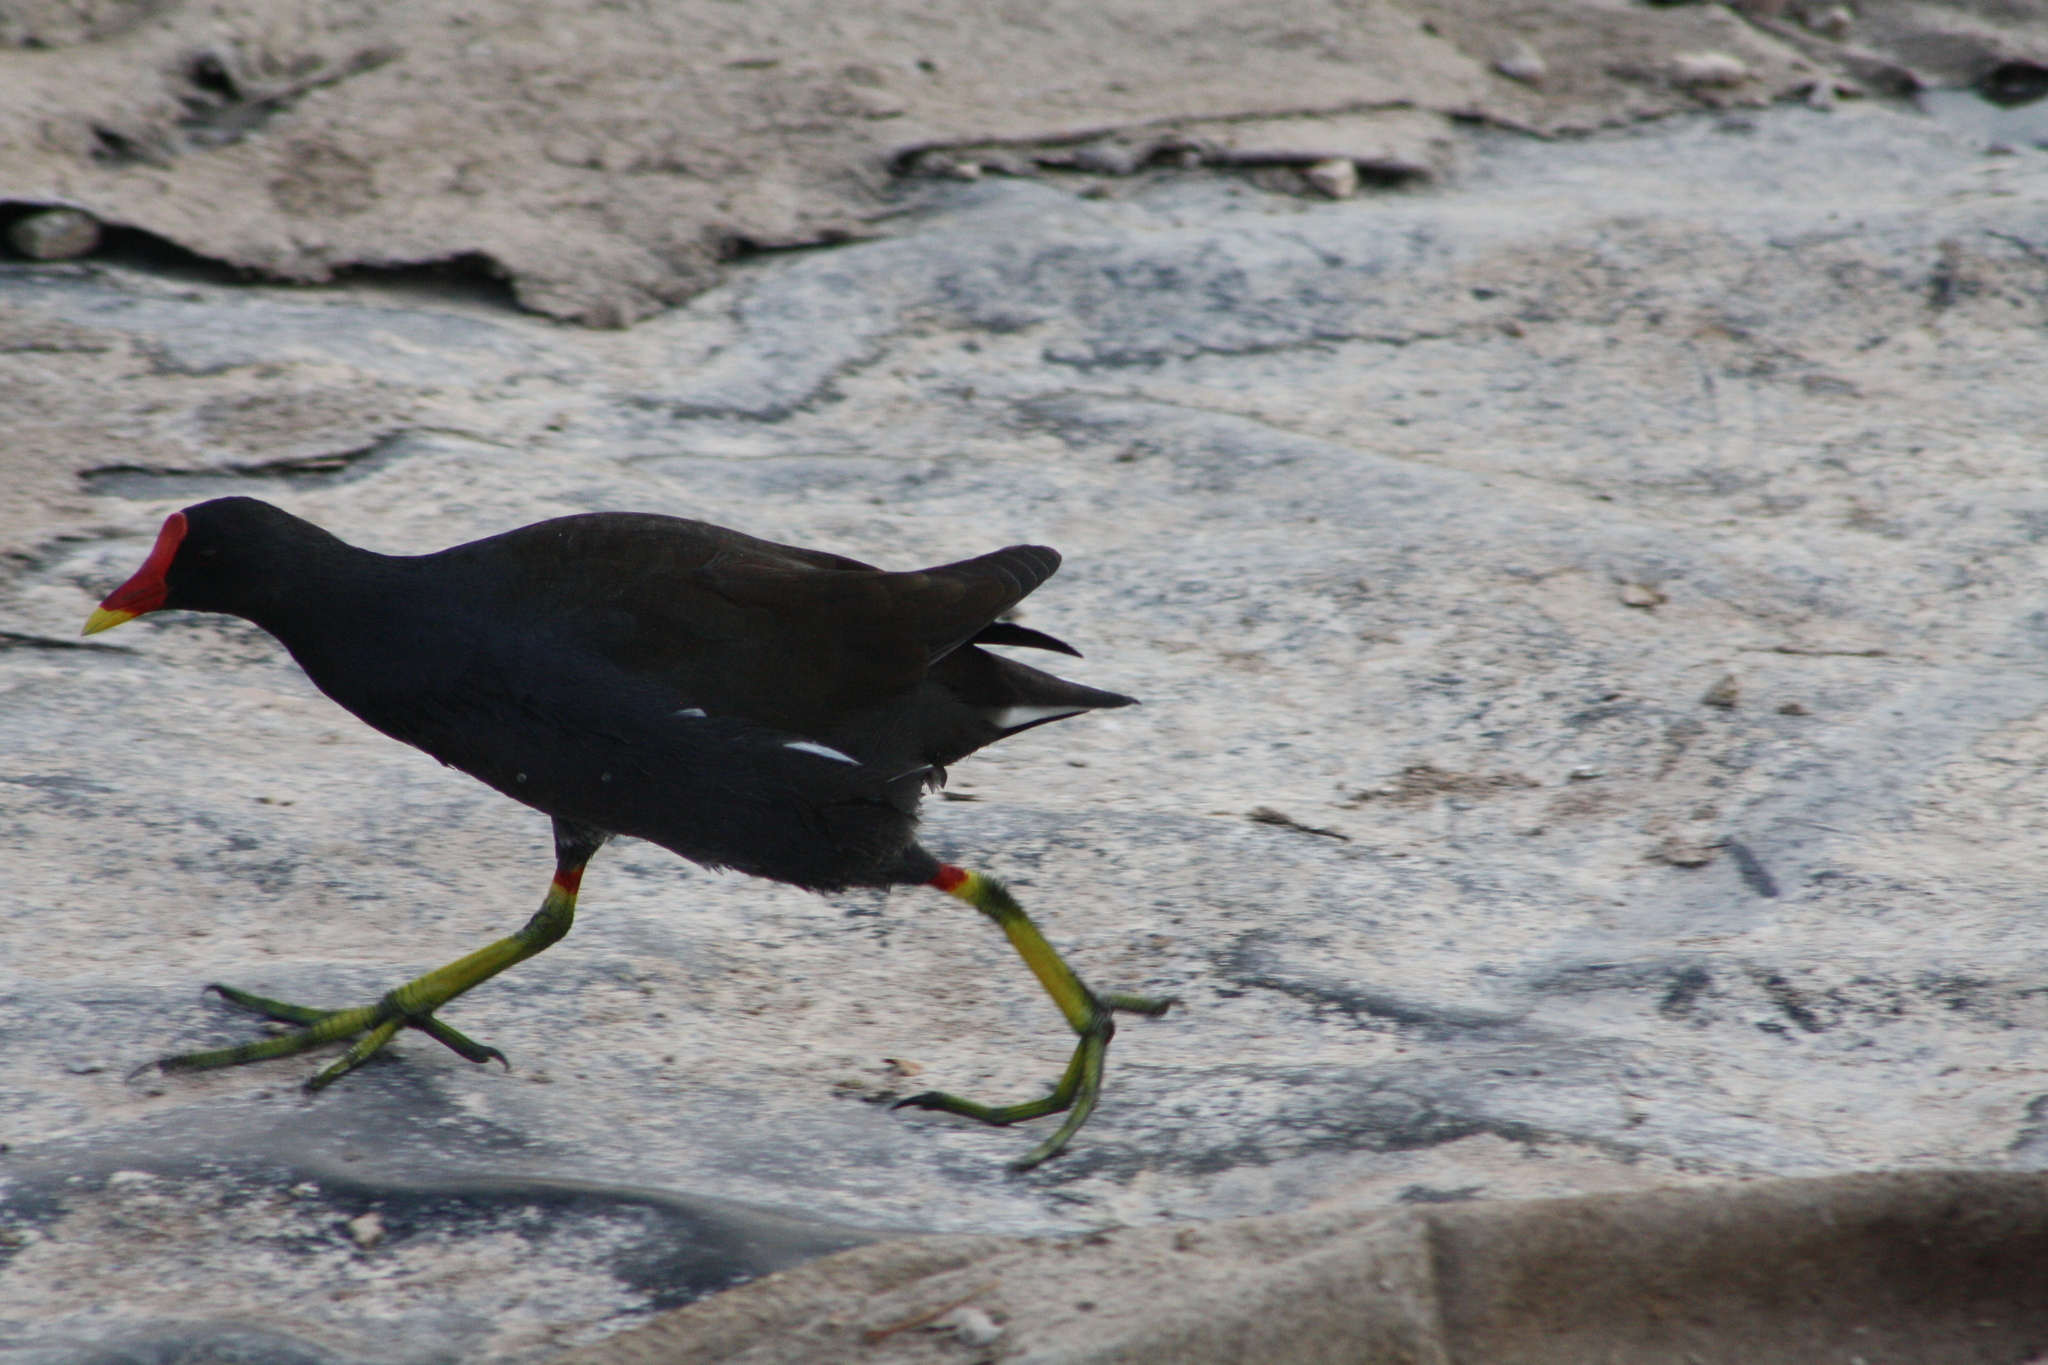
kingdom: Animalia
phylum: Chordata
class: Aves
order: Gruiformes
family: Rallidae
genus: Gallinula
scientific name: Gallinula chloropus
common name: Common moorhen
